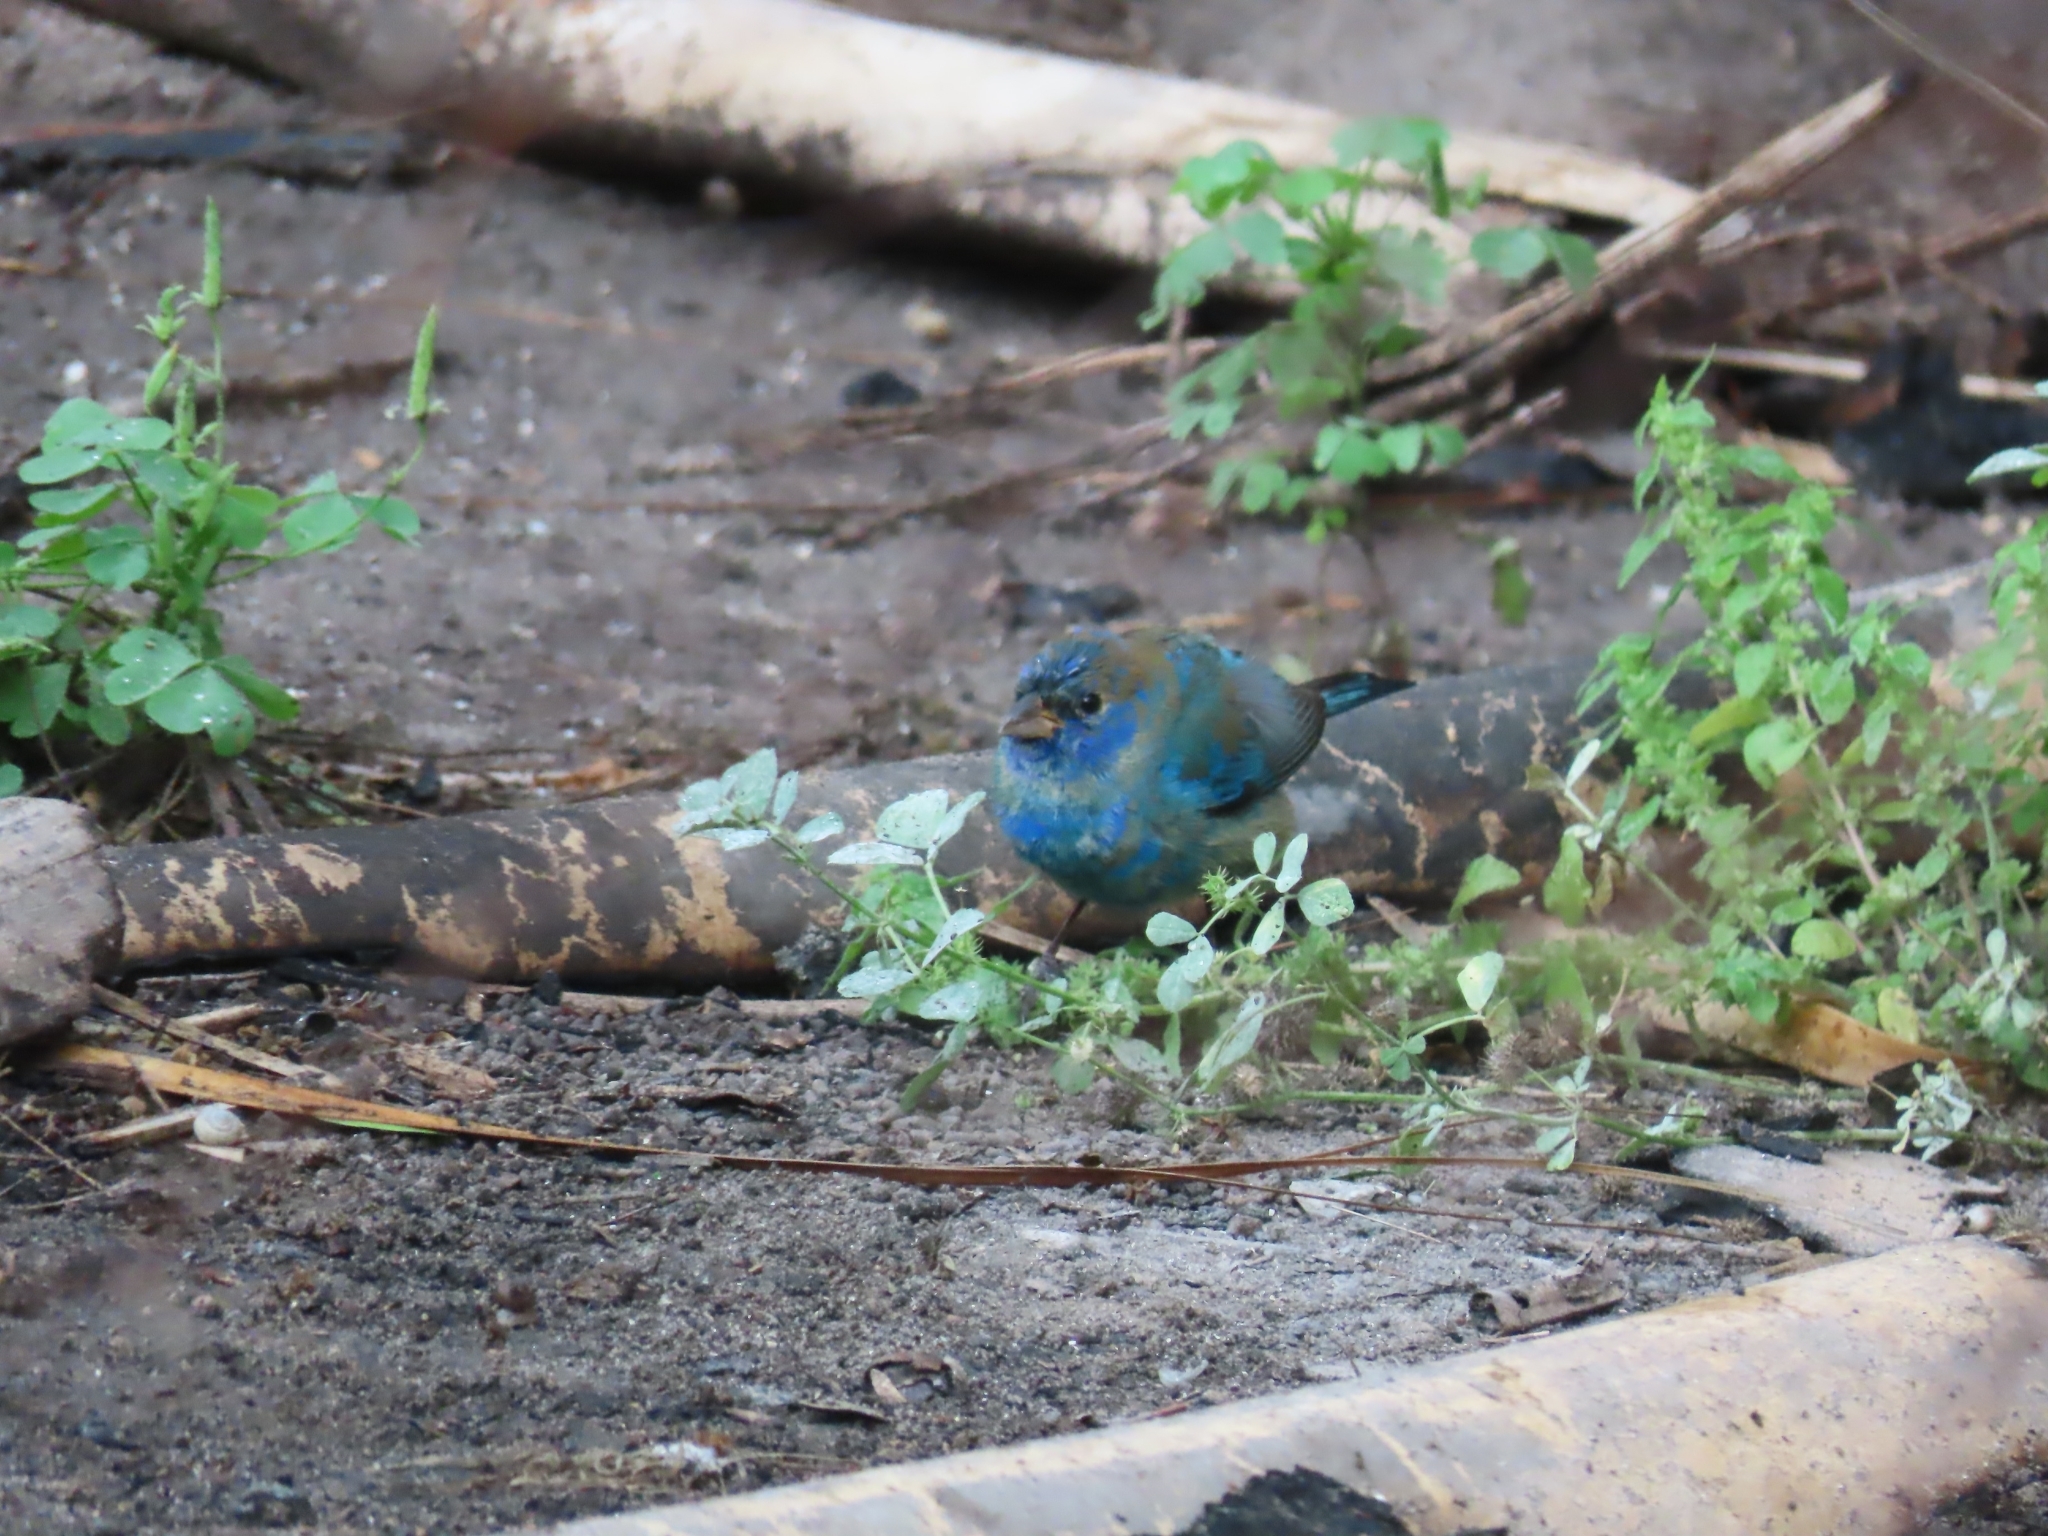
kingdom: Animalia
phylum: Chordata
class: Aves
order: Passeriformes
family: Cardinalidae
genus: Passerina
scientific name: Passerina cyanea
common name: Indigo bunting
